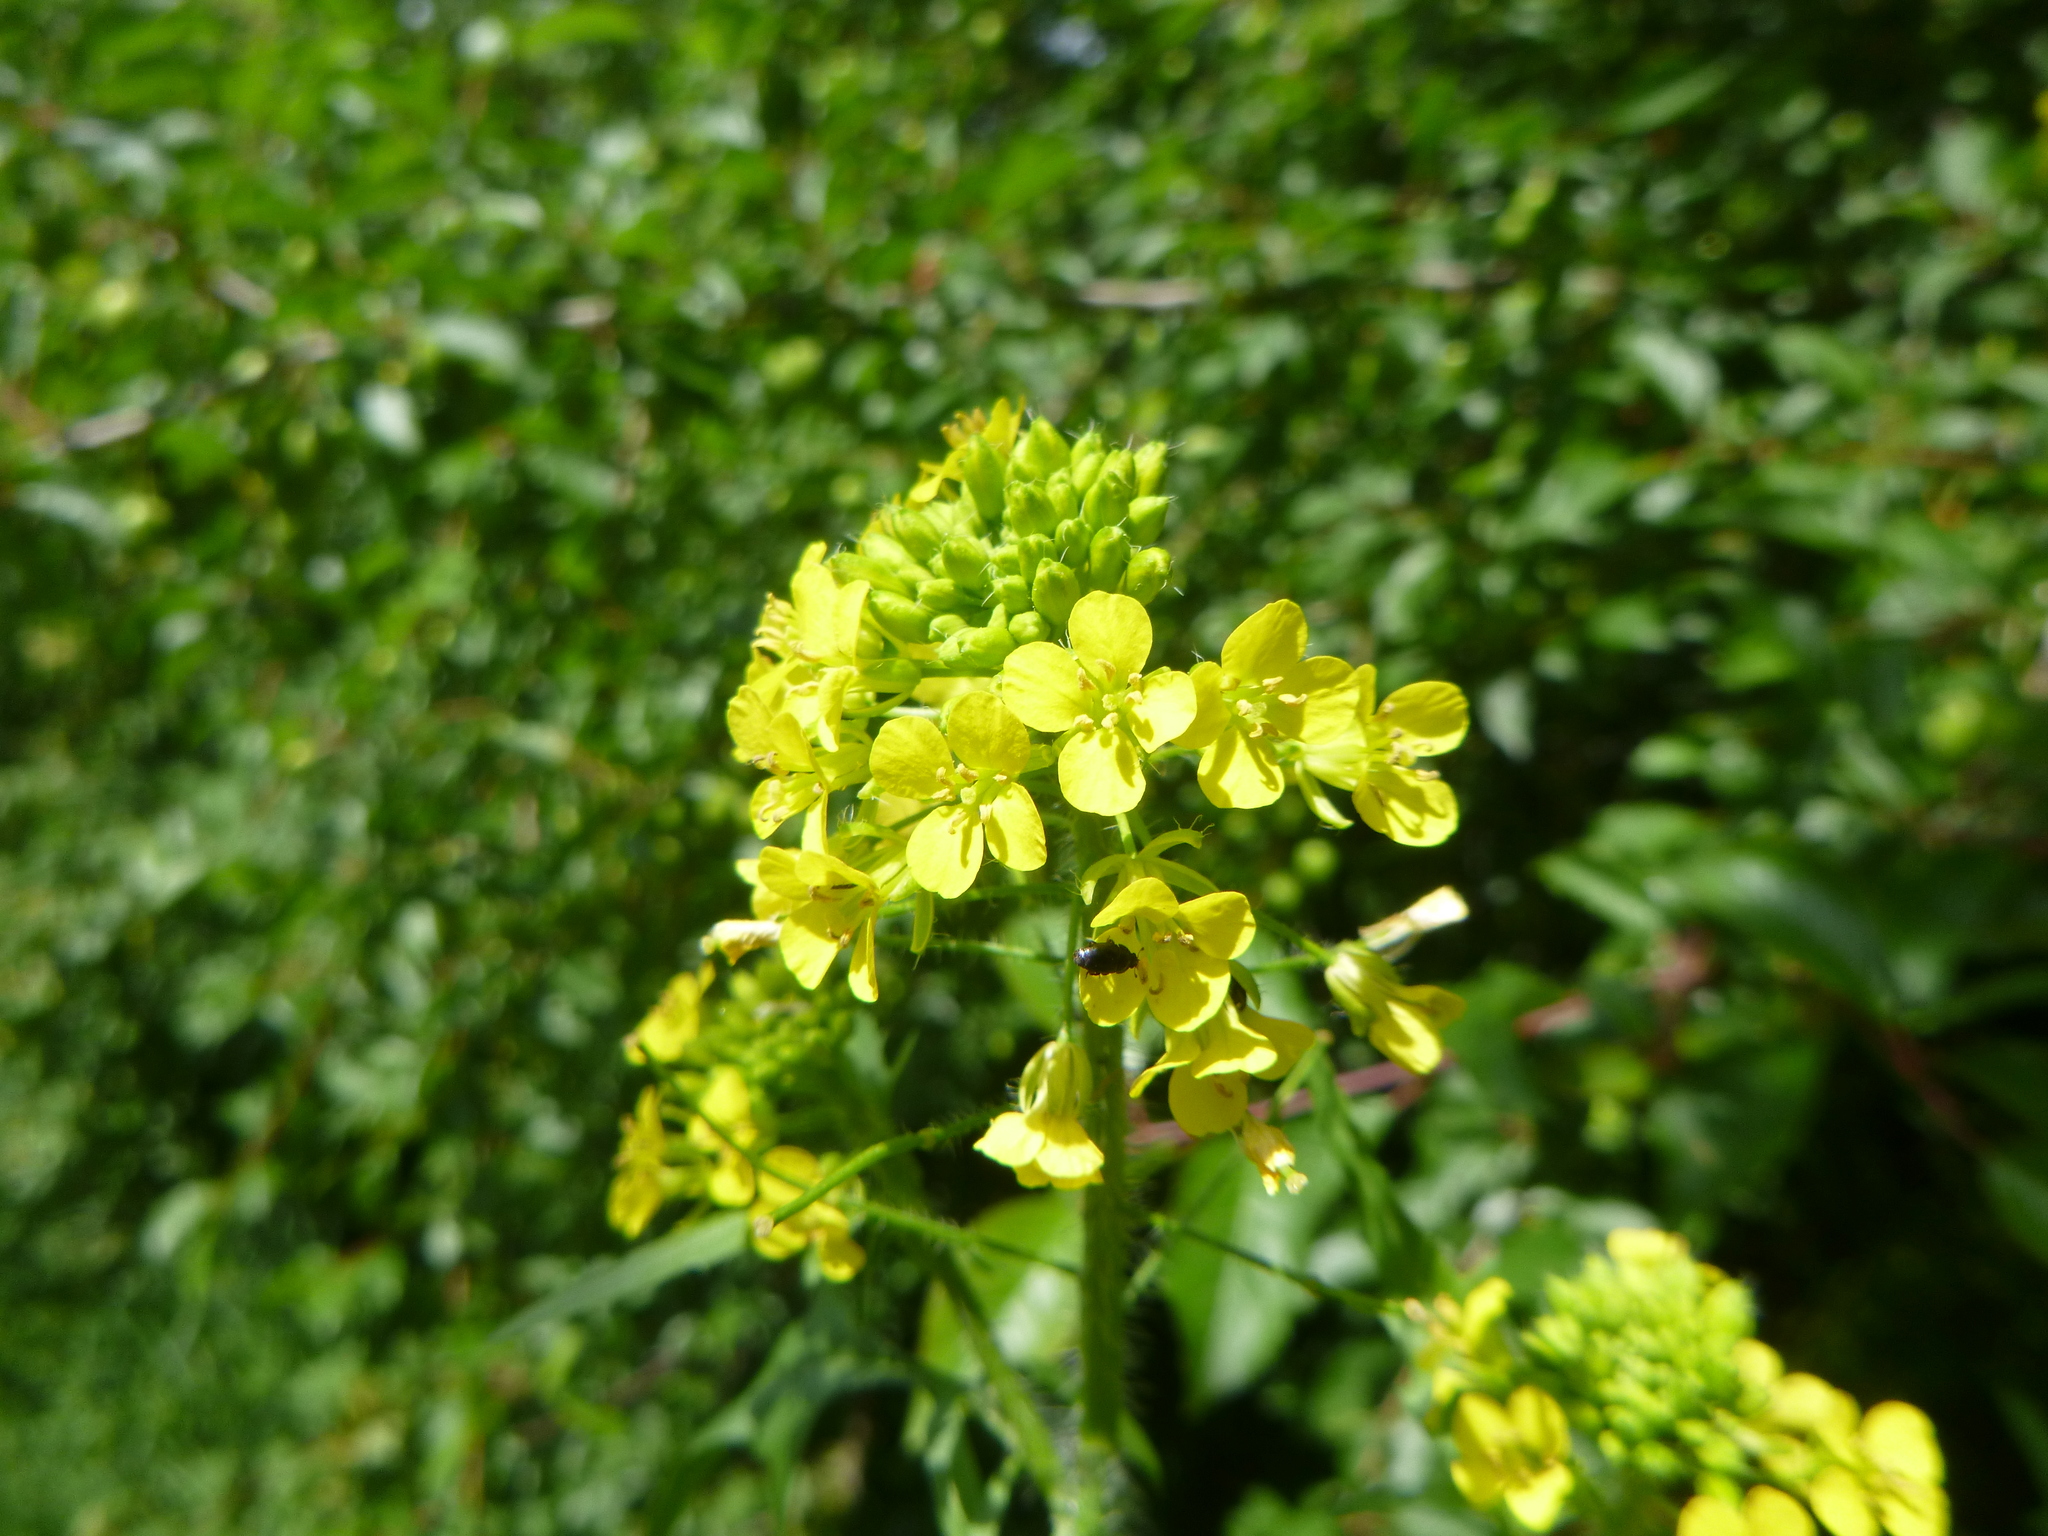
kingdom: Plantae
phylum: Tracheophyta
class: Magnoliopsida
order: Brassicales
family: Brassicaceae
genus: Sisymbrium
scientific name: Sisymbrium loeselii
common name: False london-rocket
